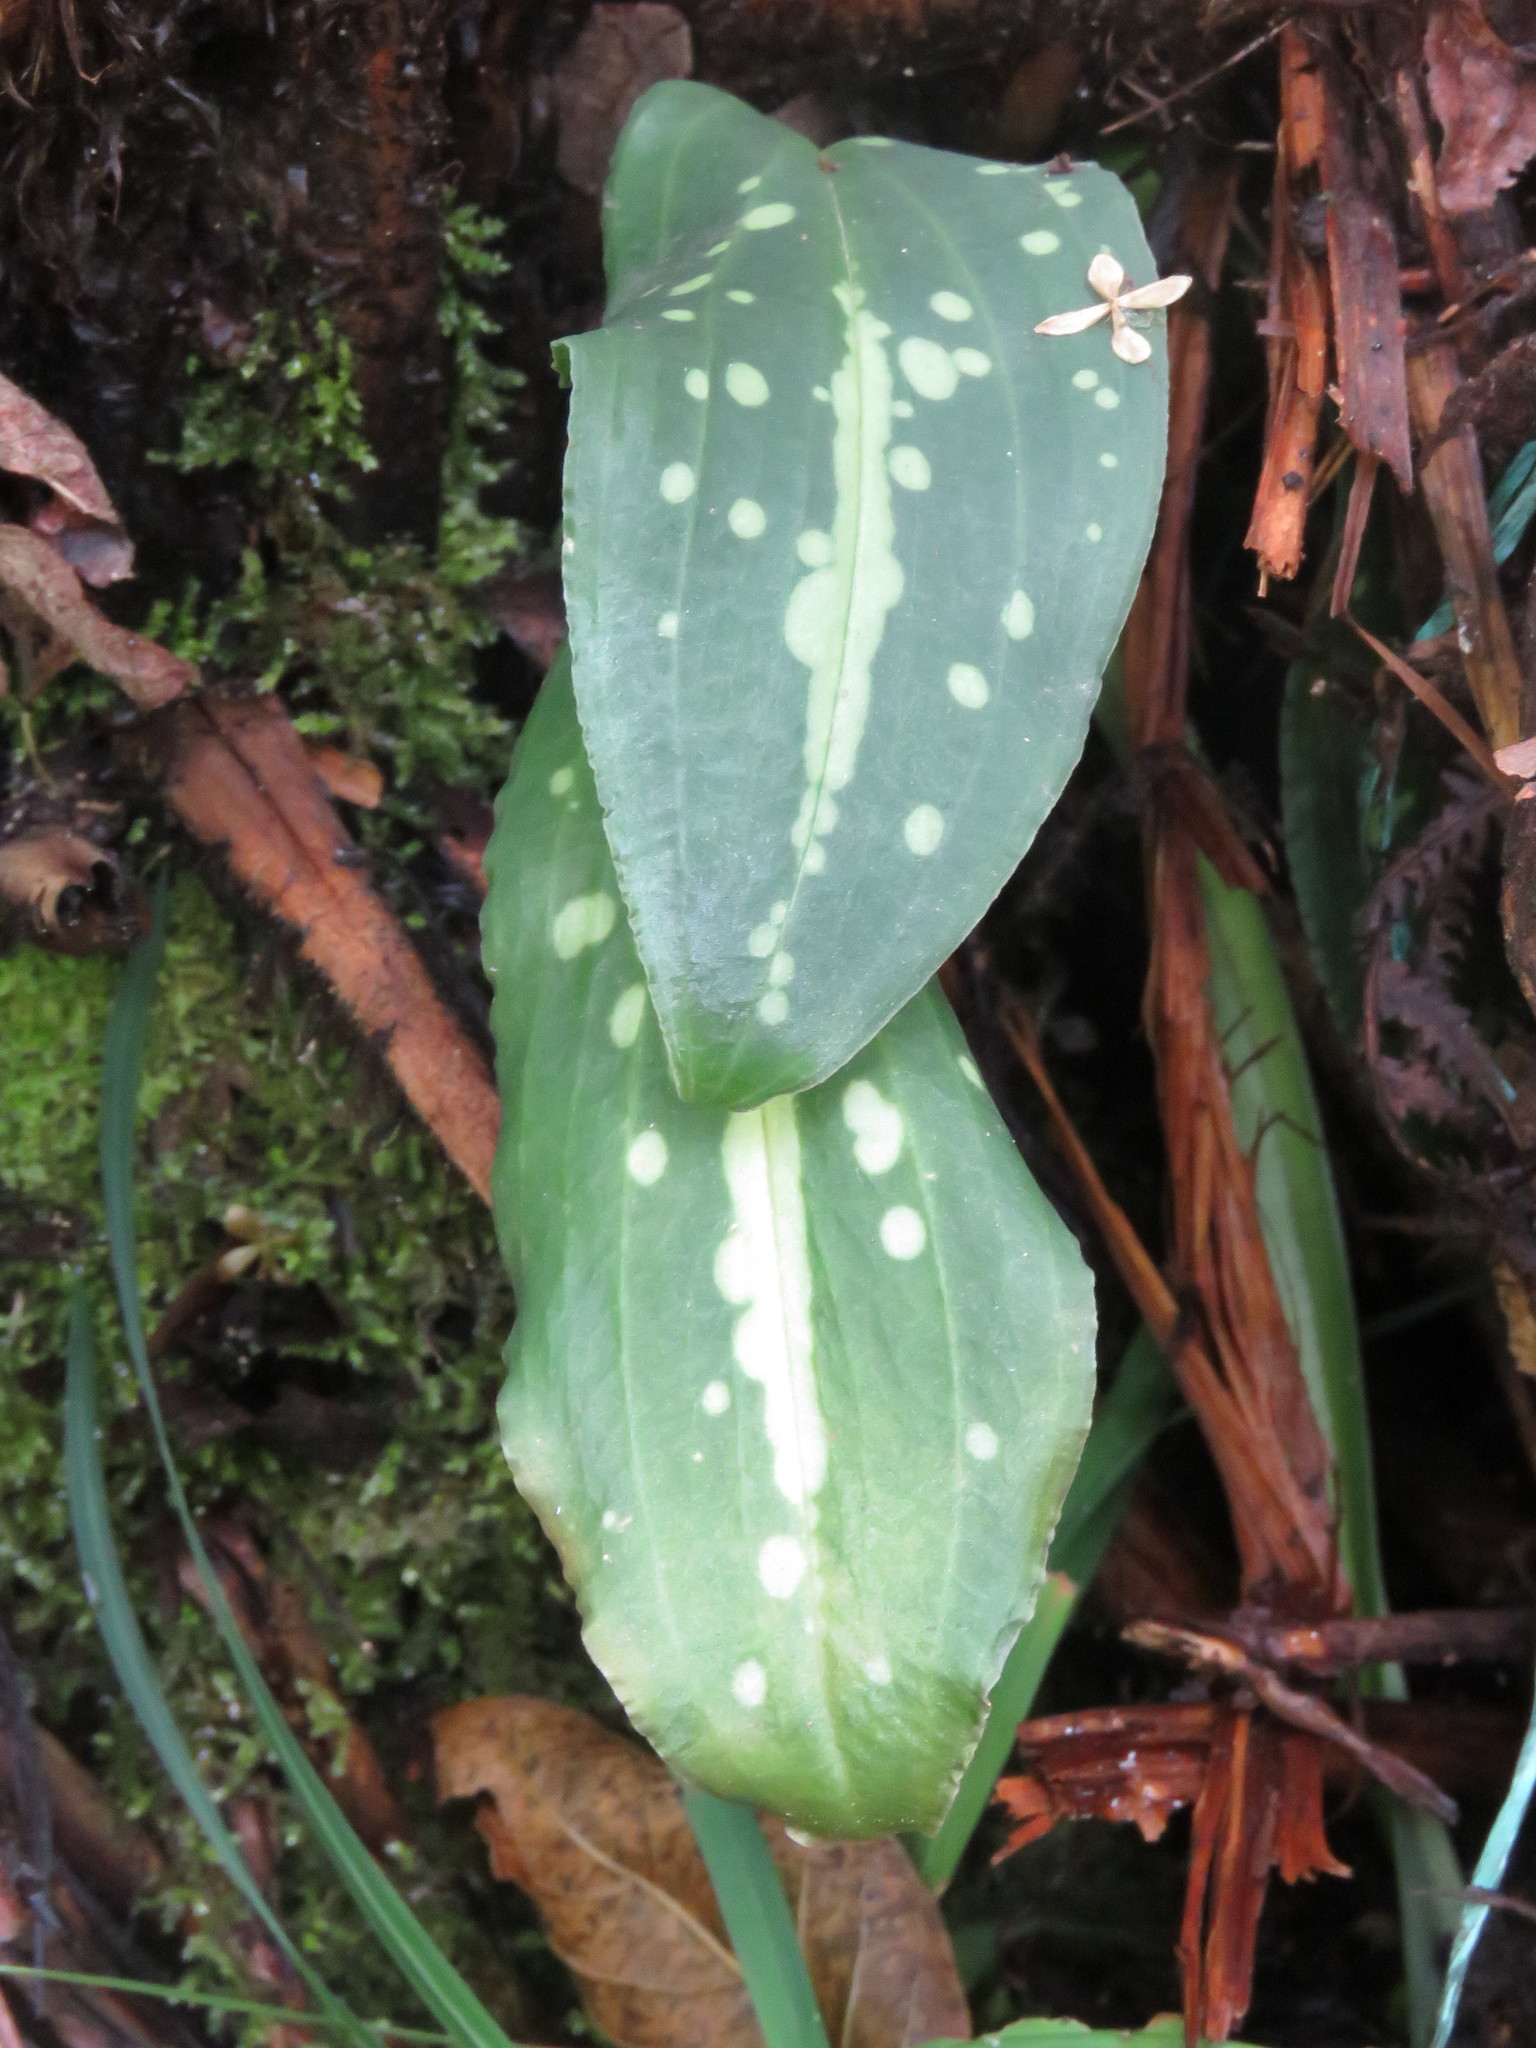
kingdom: Plantae
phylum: Tracheophyta
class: Liliopsida
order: Asparagales
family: Orchidaceae
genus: Stenorrhynchos
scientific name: Stenorrhynchos albidomaculatum
